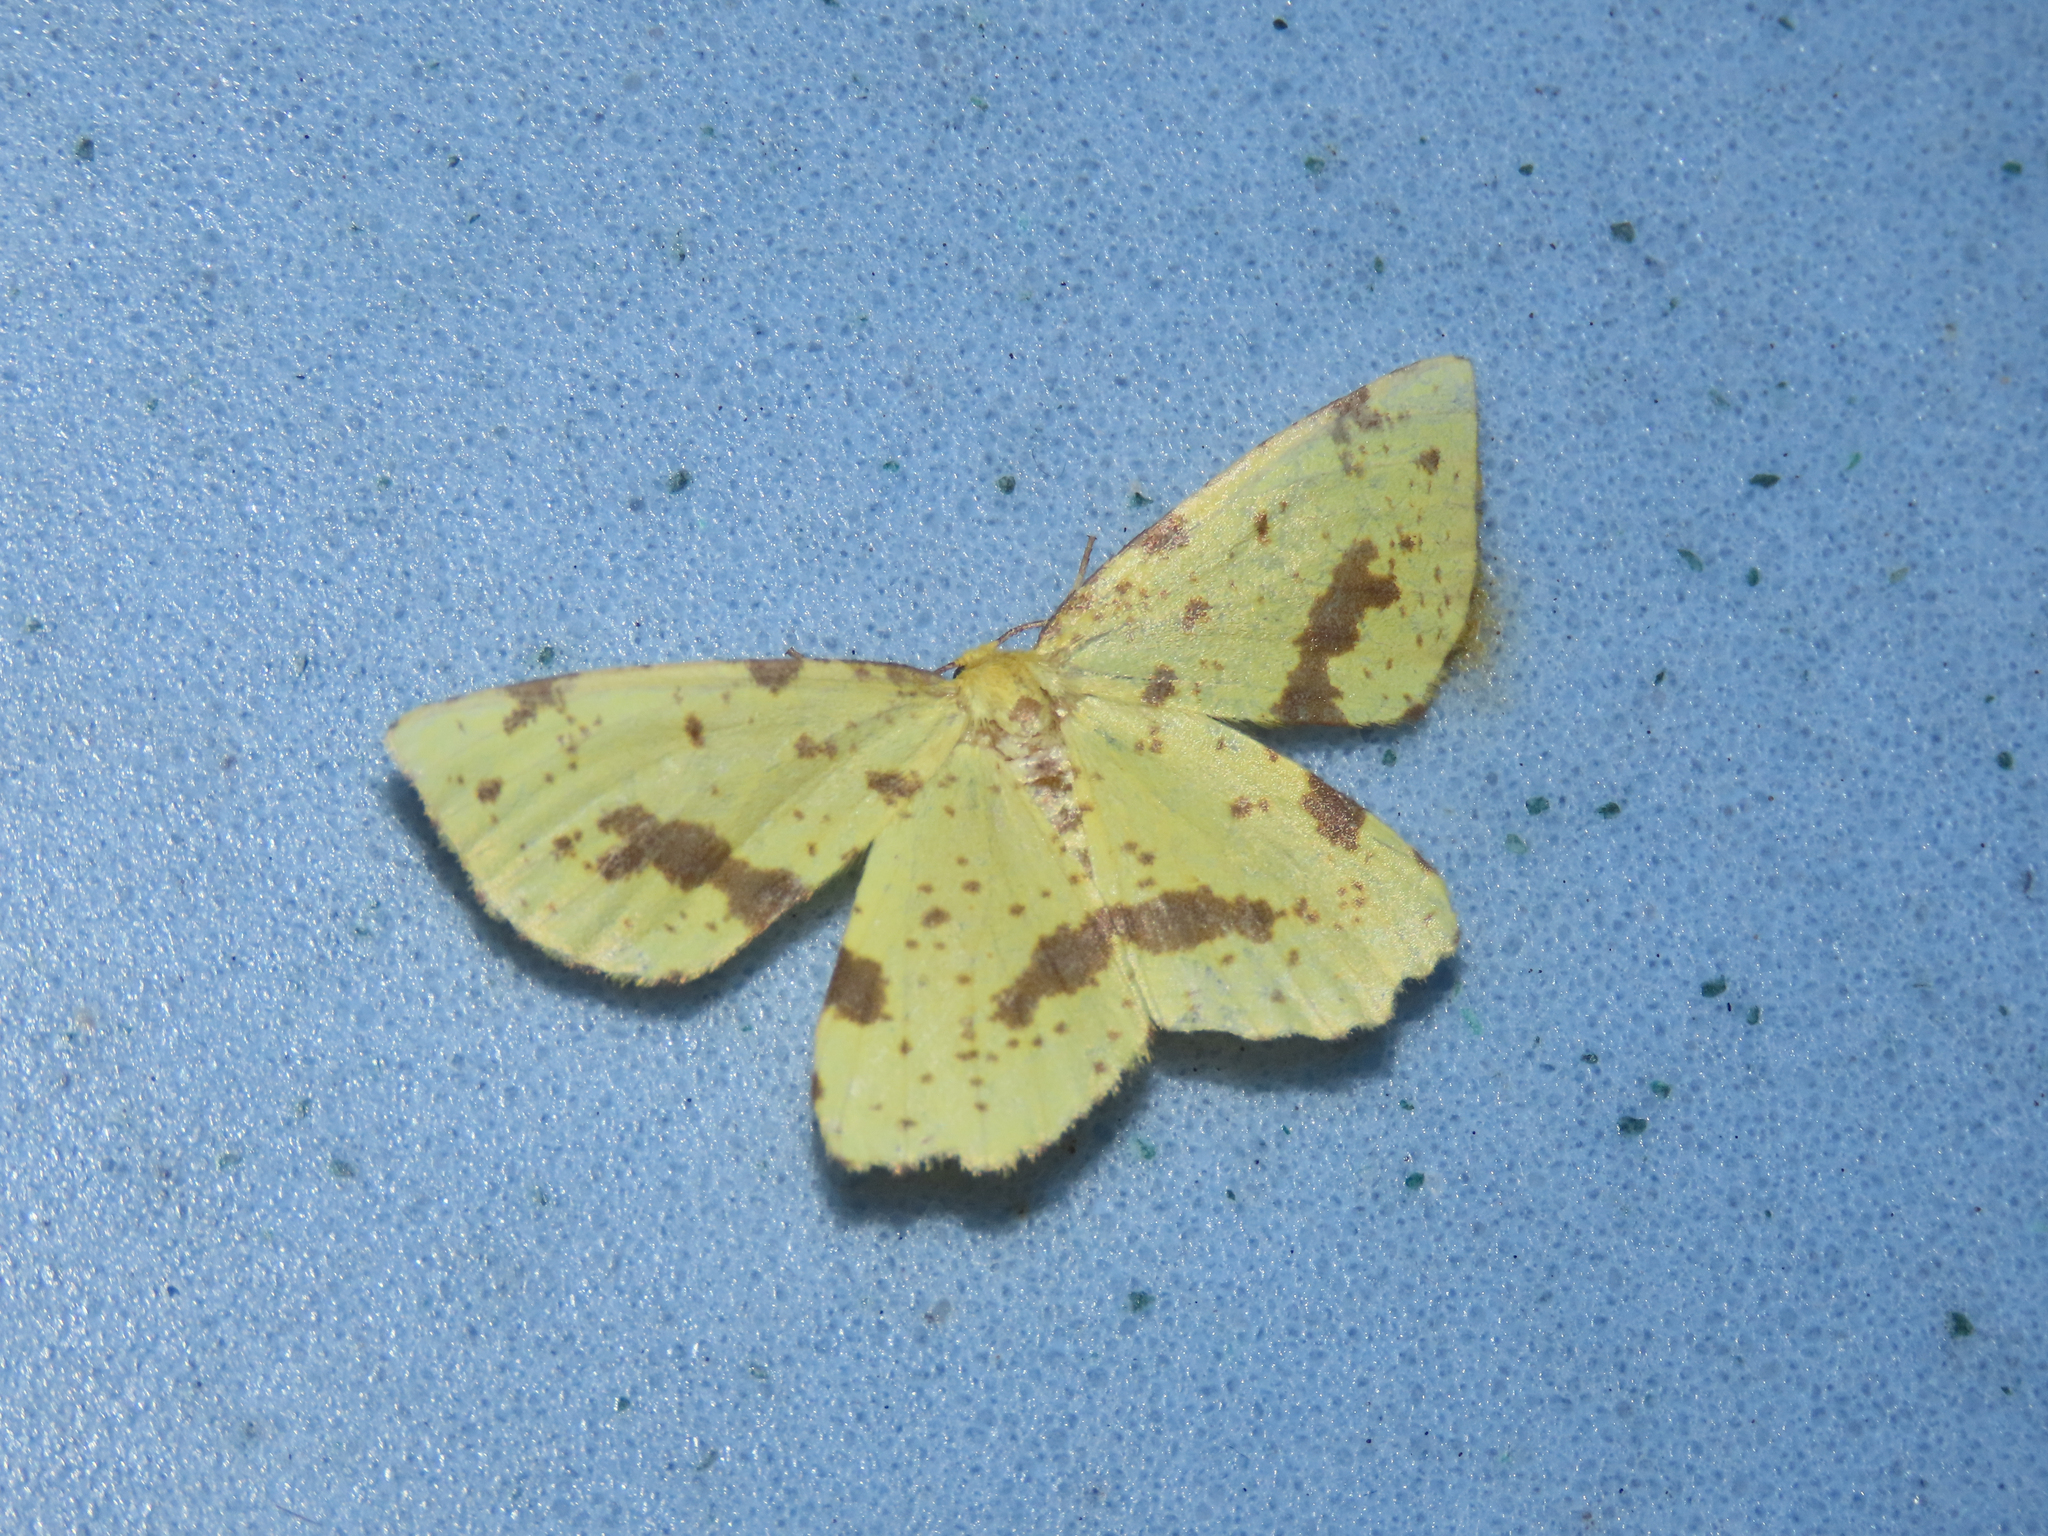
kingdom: Animalia
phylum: Arthropoda
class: Insecta
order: Lepidoptera
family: Geometridae
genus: Xanthotype
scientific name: Xanthotype
